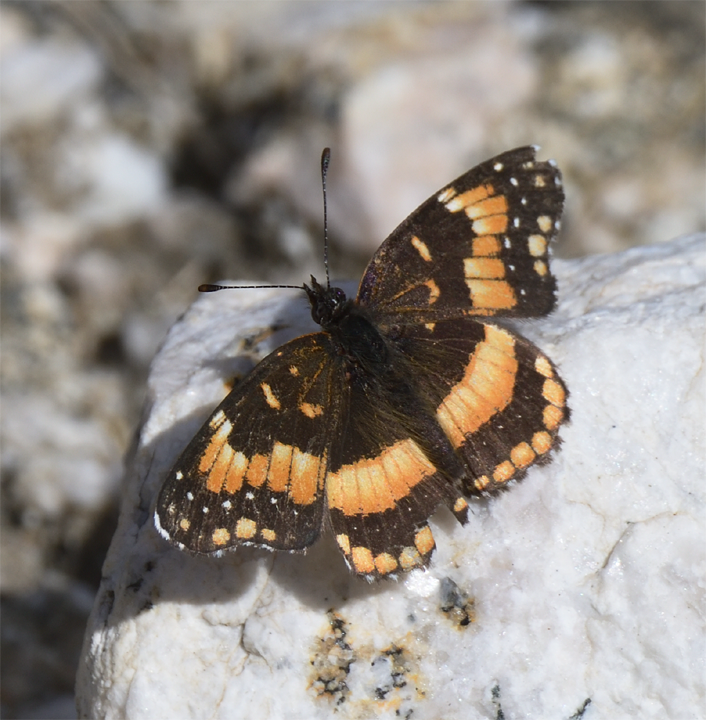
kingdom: Animalia
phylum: Arthropoda
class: Insecta
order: Lepidoptera
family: Nymphalidae
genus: Chlosyne
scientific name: Chlosyne californica
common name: California patch
